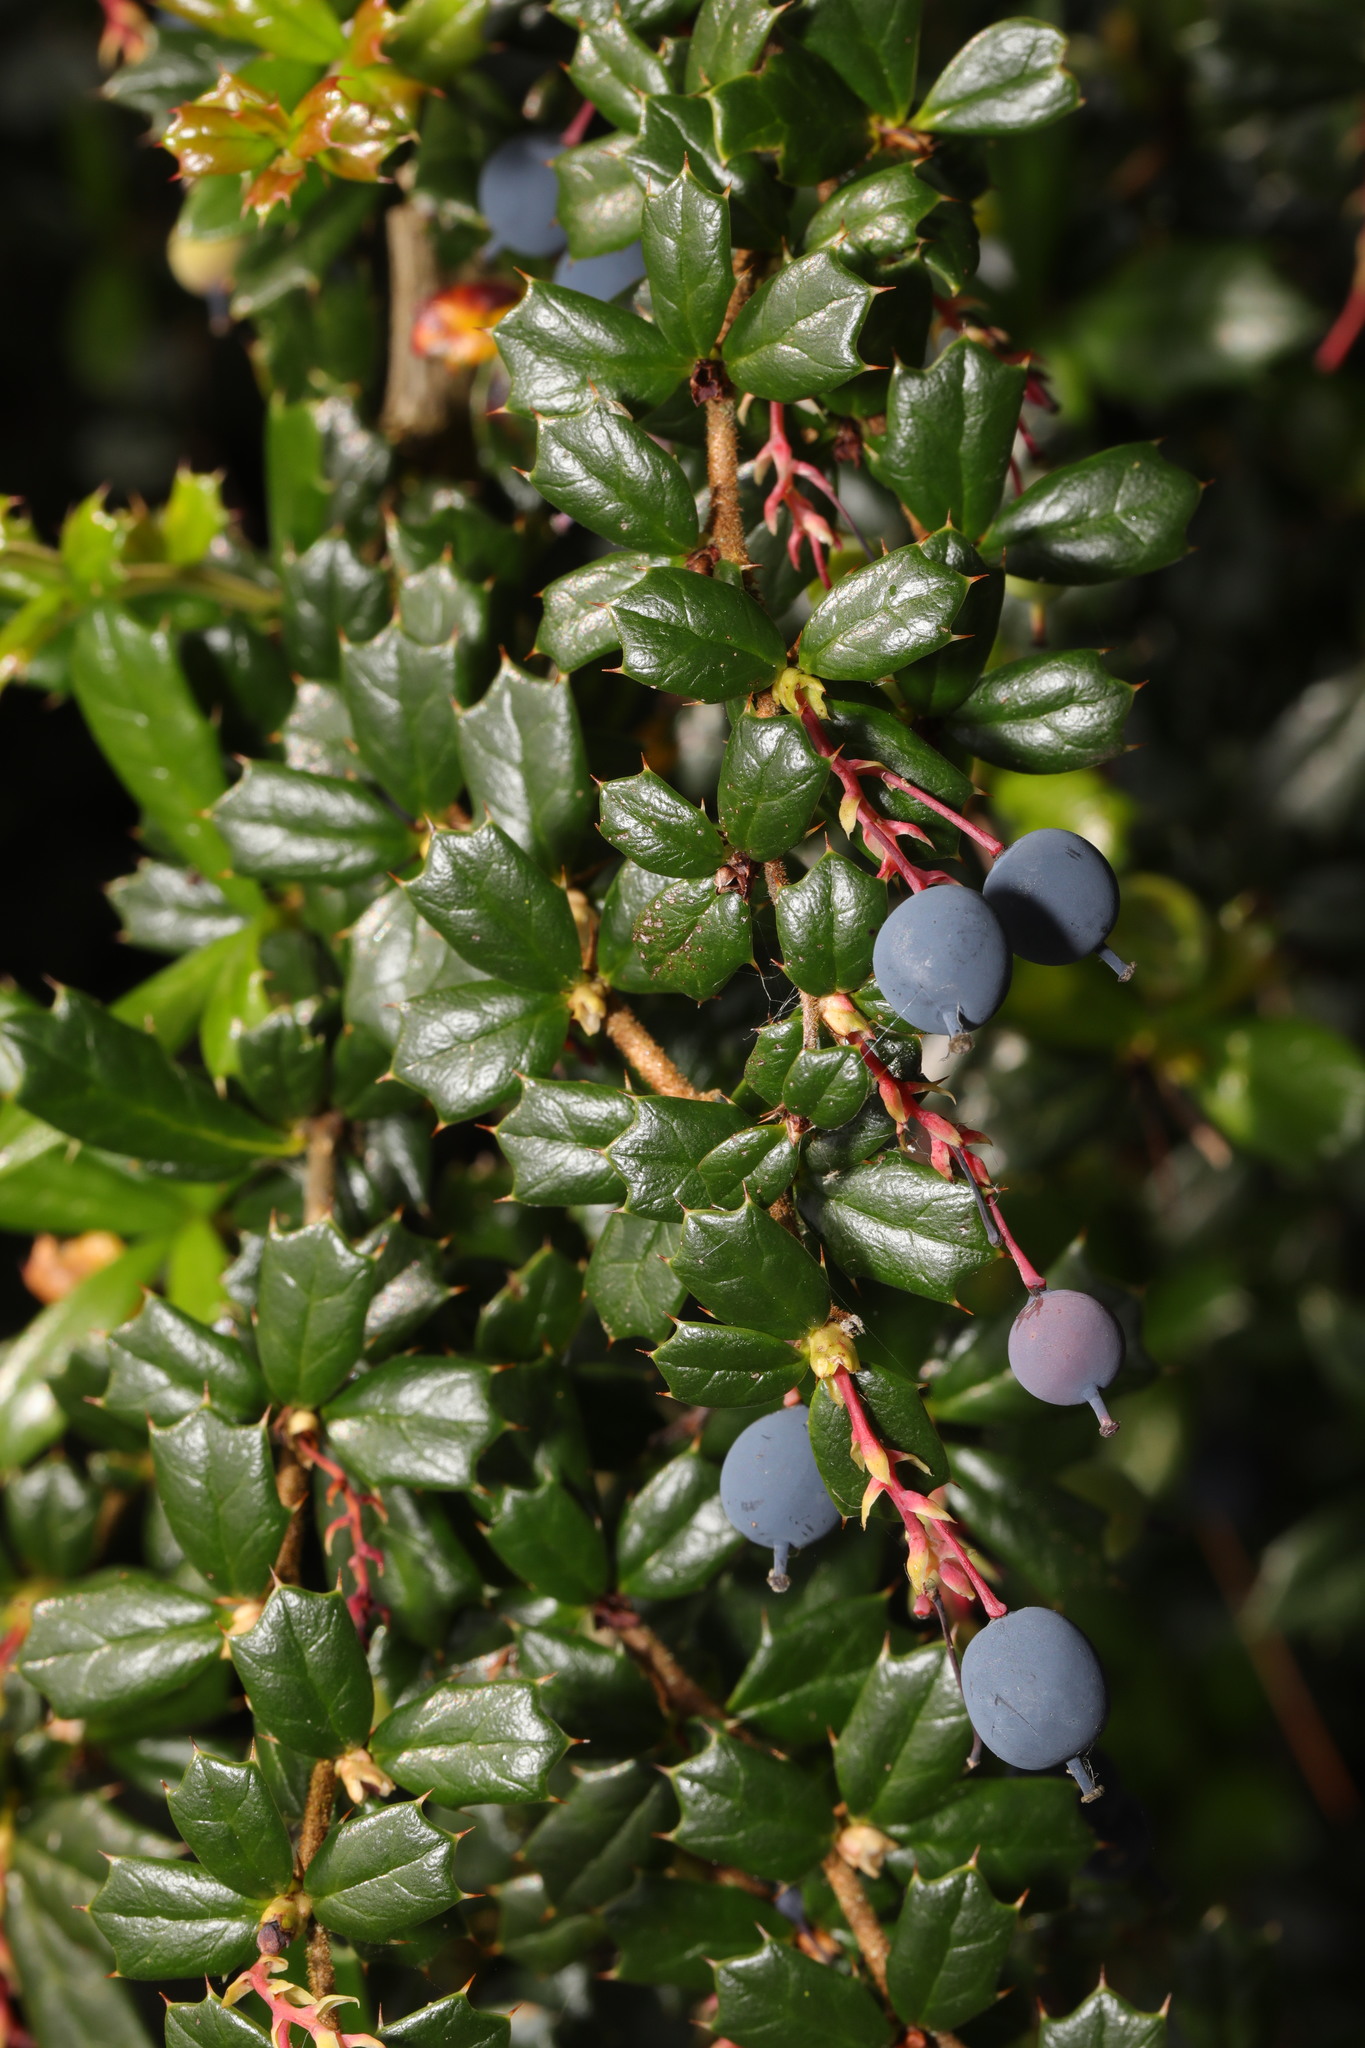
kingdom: Plantae
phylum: Tracheophyta
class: Magnoliopsida
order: Ranunculales
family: Berberidaceae
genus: Berberis
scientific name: Berberis darwinii
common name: Darwin's barberry
